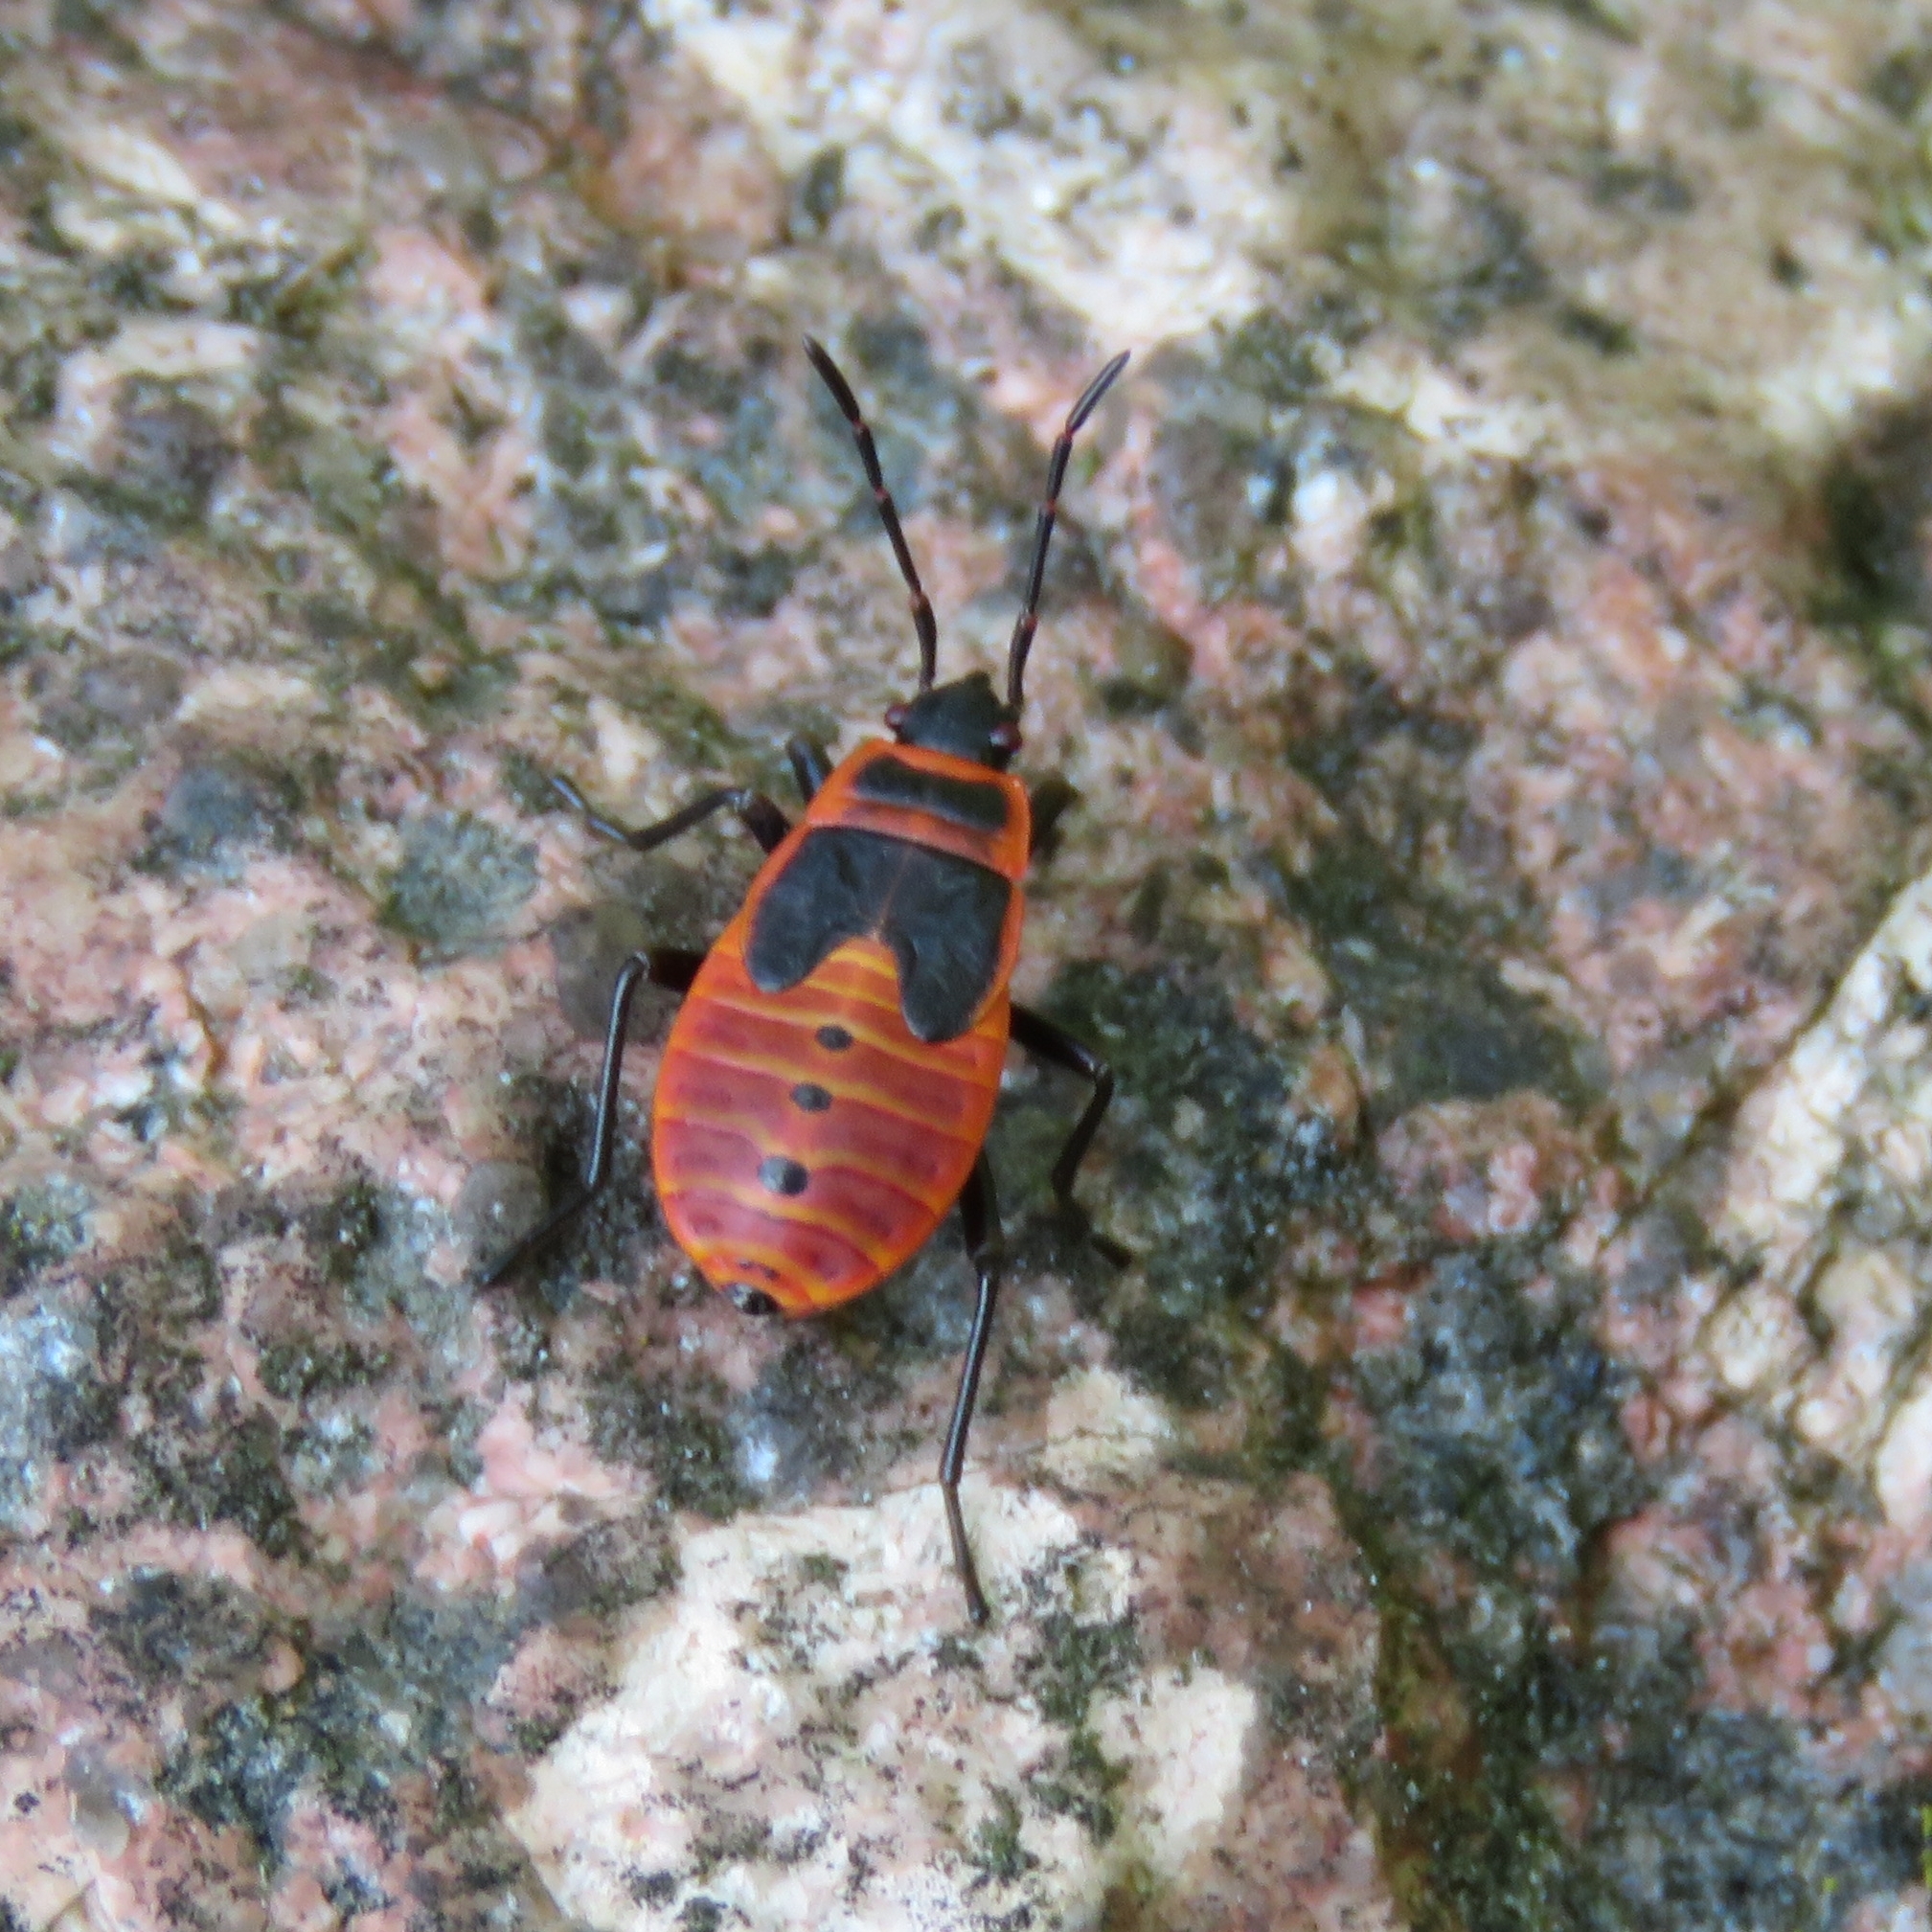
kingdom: Animalia
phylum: Arthropoda
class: Insecta
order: Hemiptera
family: Pyrrhocoridae
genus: Pyrrhocoris
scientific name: Pyrrhocoris apterus
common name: Firebug
